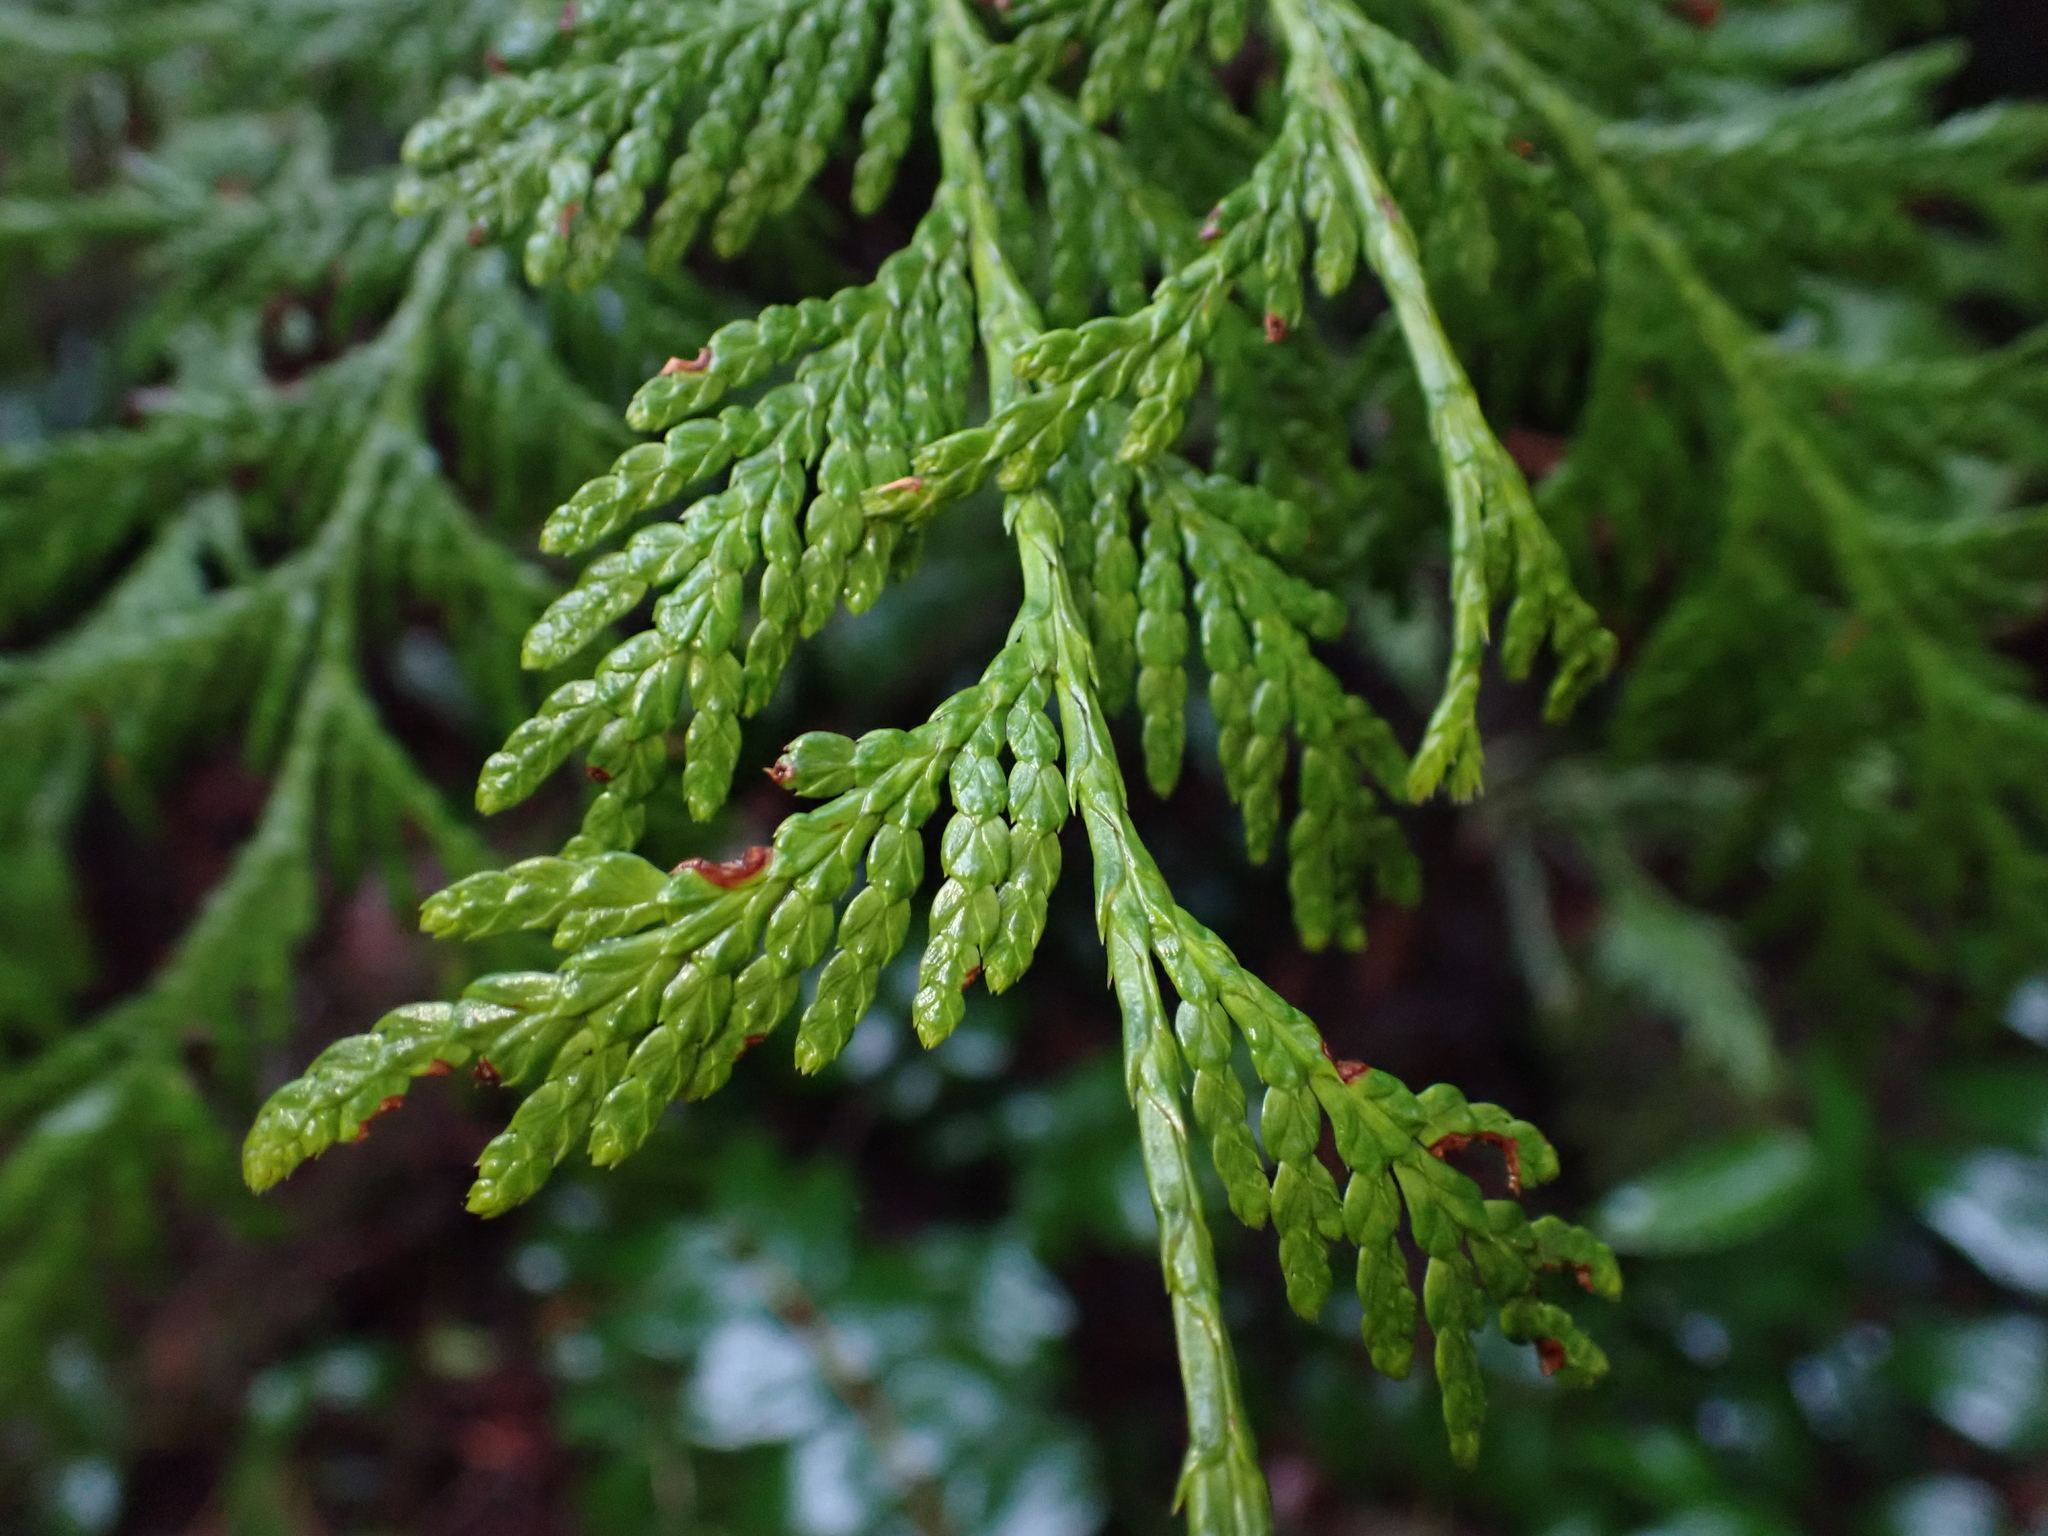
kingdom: Plantae
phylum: Tracheophyta
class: Pinopsida
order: Pinales
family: Cupressaceae
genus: Thuja
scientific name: Thuja plicata
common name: Western red-cedar
